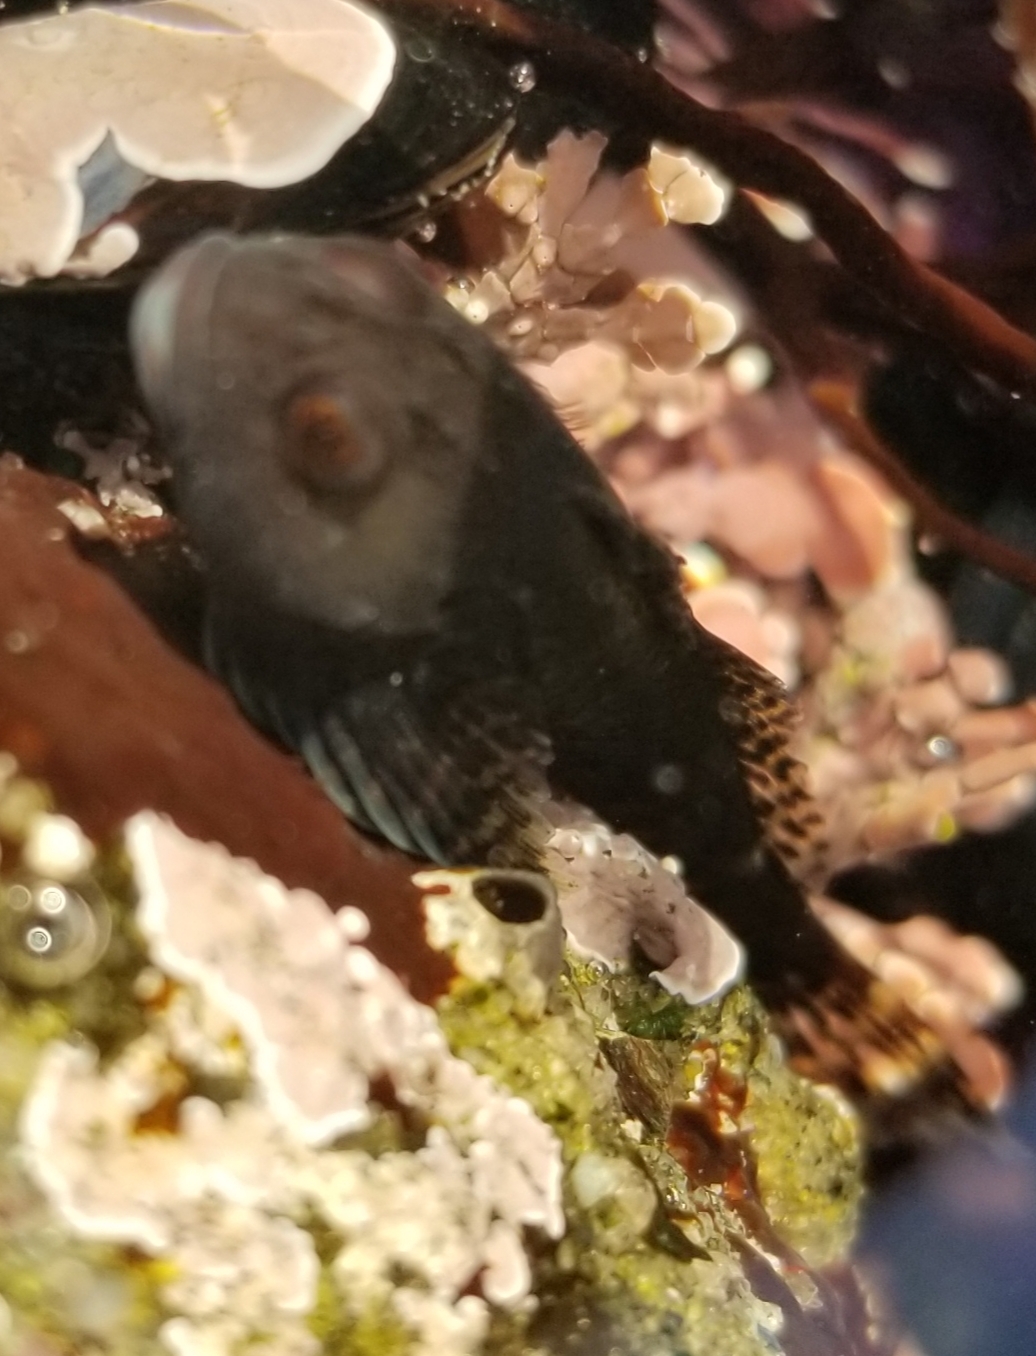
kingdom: Animalia
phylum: Chordata
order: Scorpaeniformes
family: Cottidae
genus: Clinocottus
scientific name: Clinocottus globiceps
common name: Mosshead sculpin
